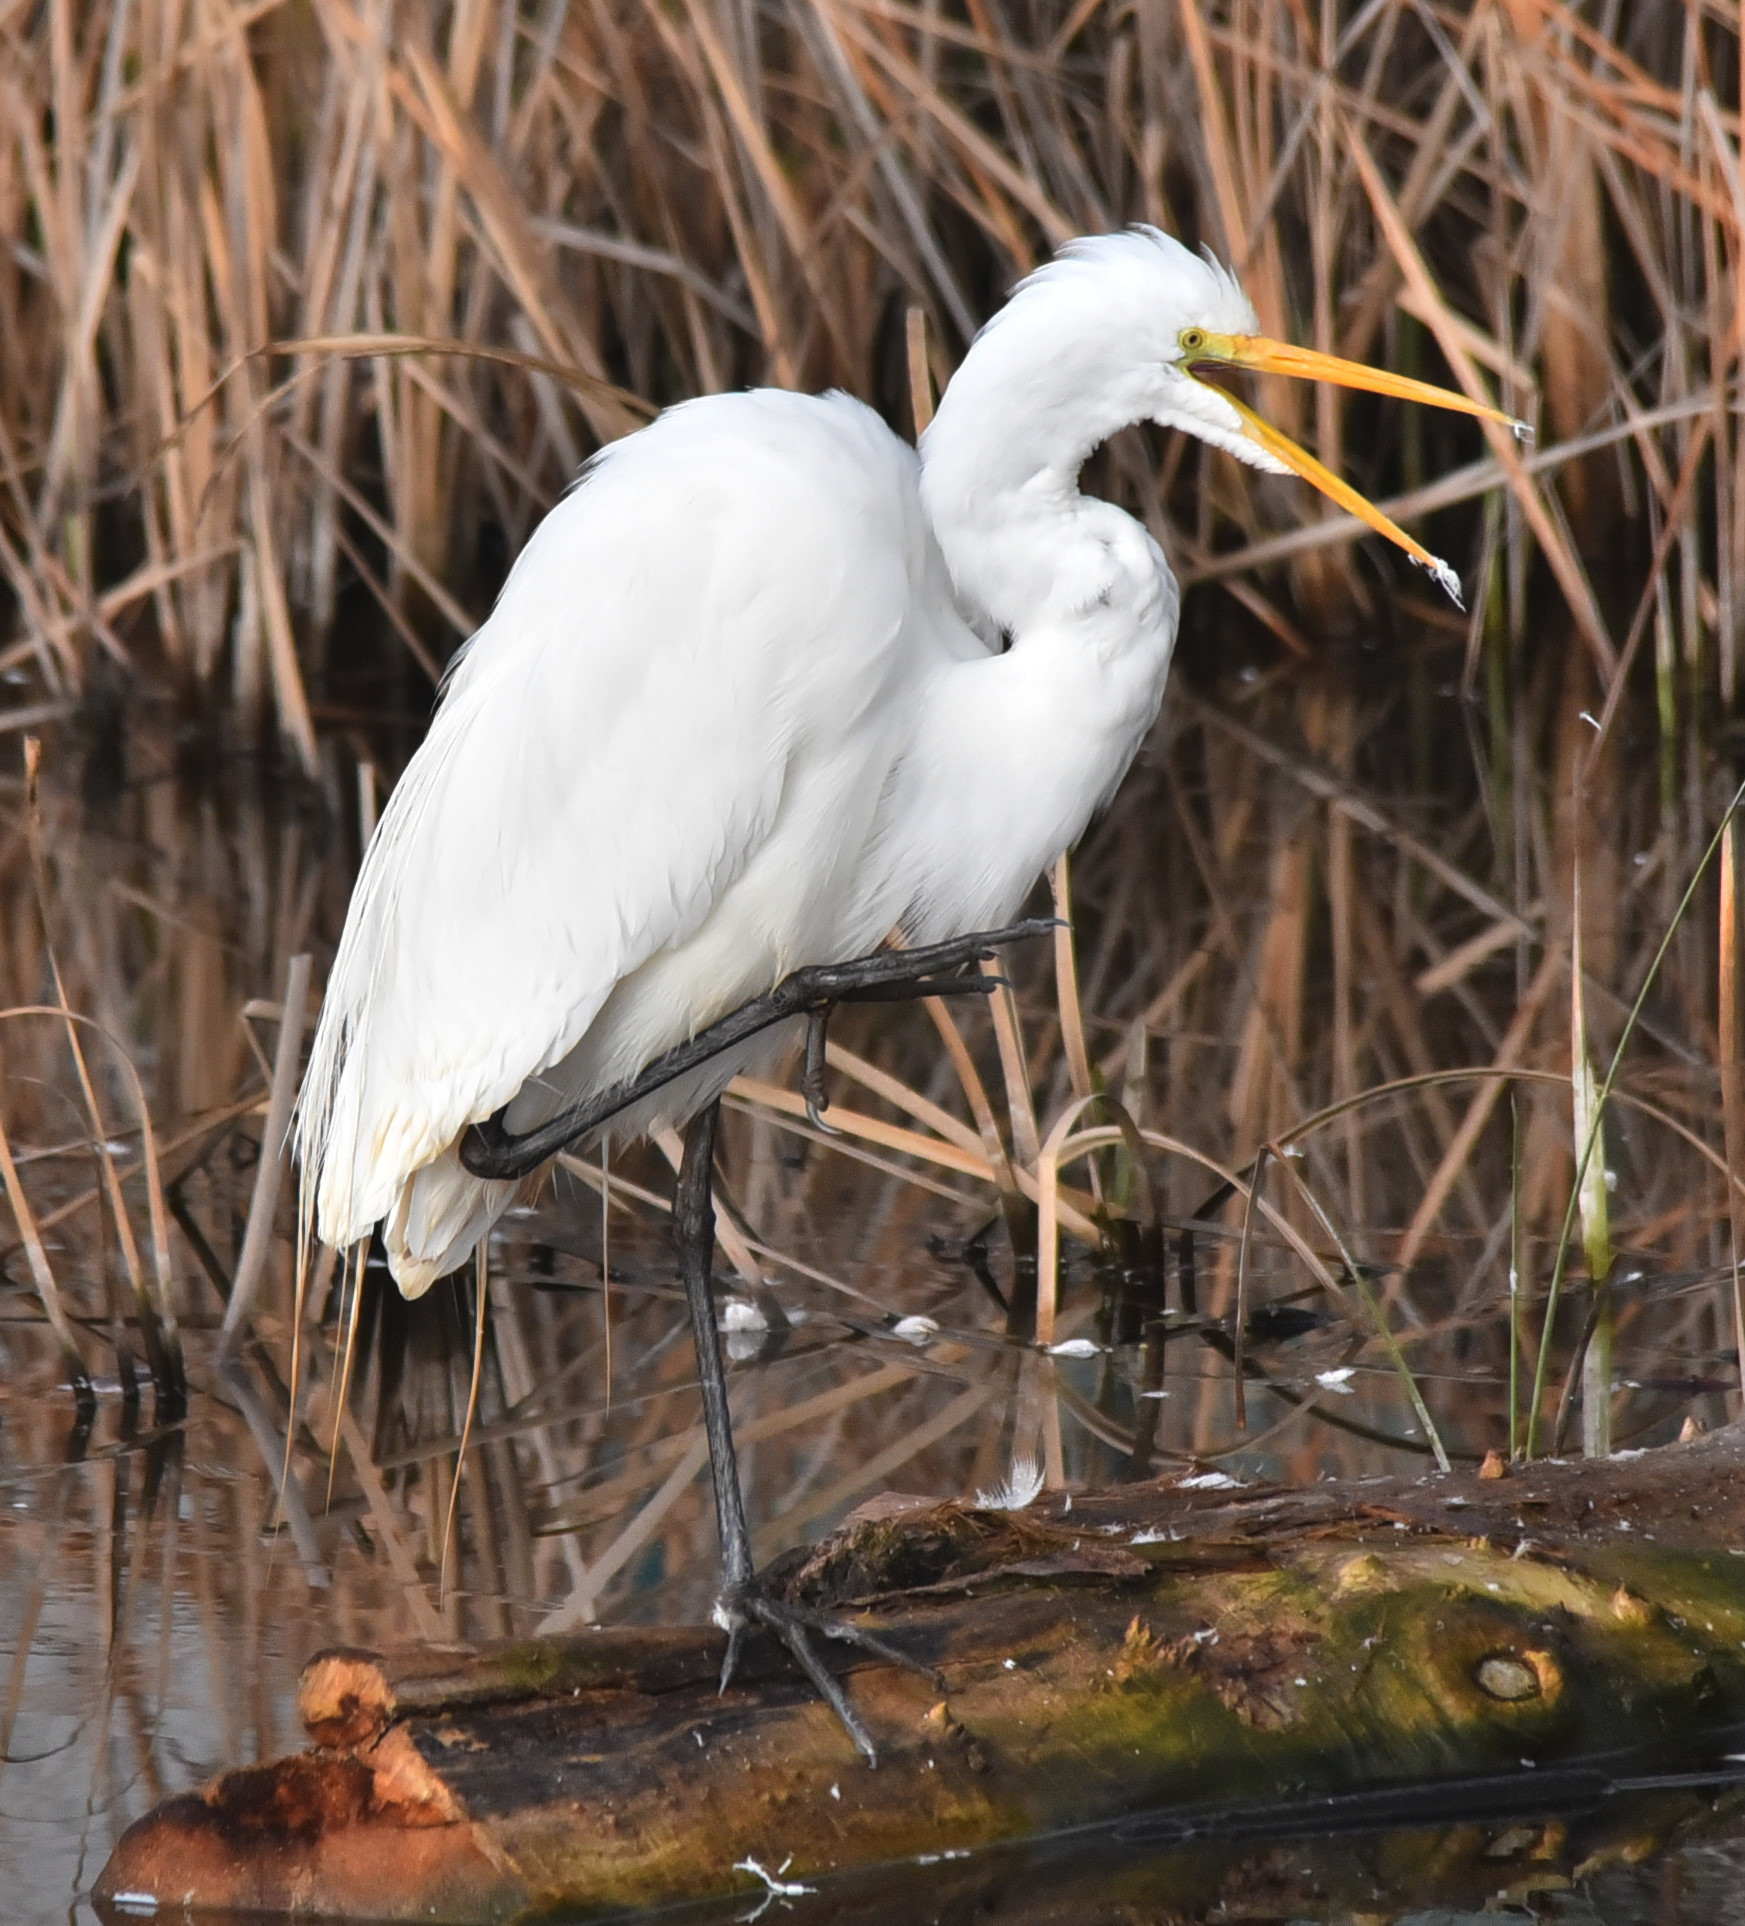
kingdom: Animalia
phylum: Chordata
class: Aves
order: Pelecaniformes
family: Ardeidae
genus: Ardea
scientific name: Ardea alba
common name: Great egret
